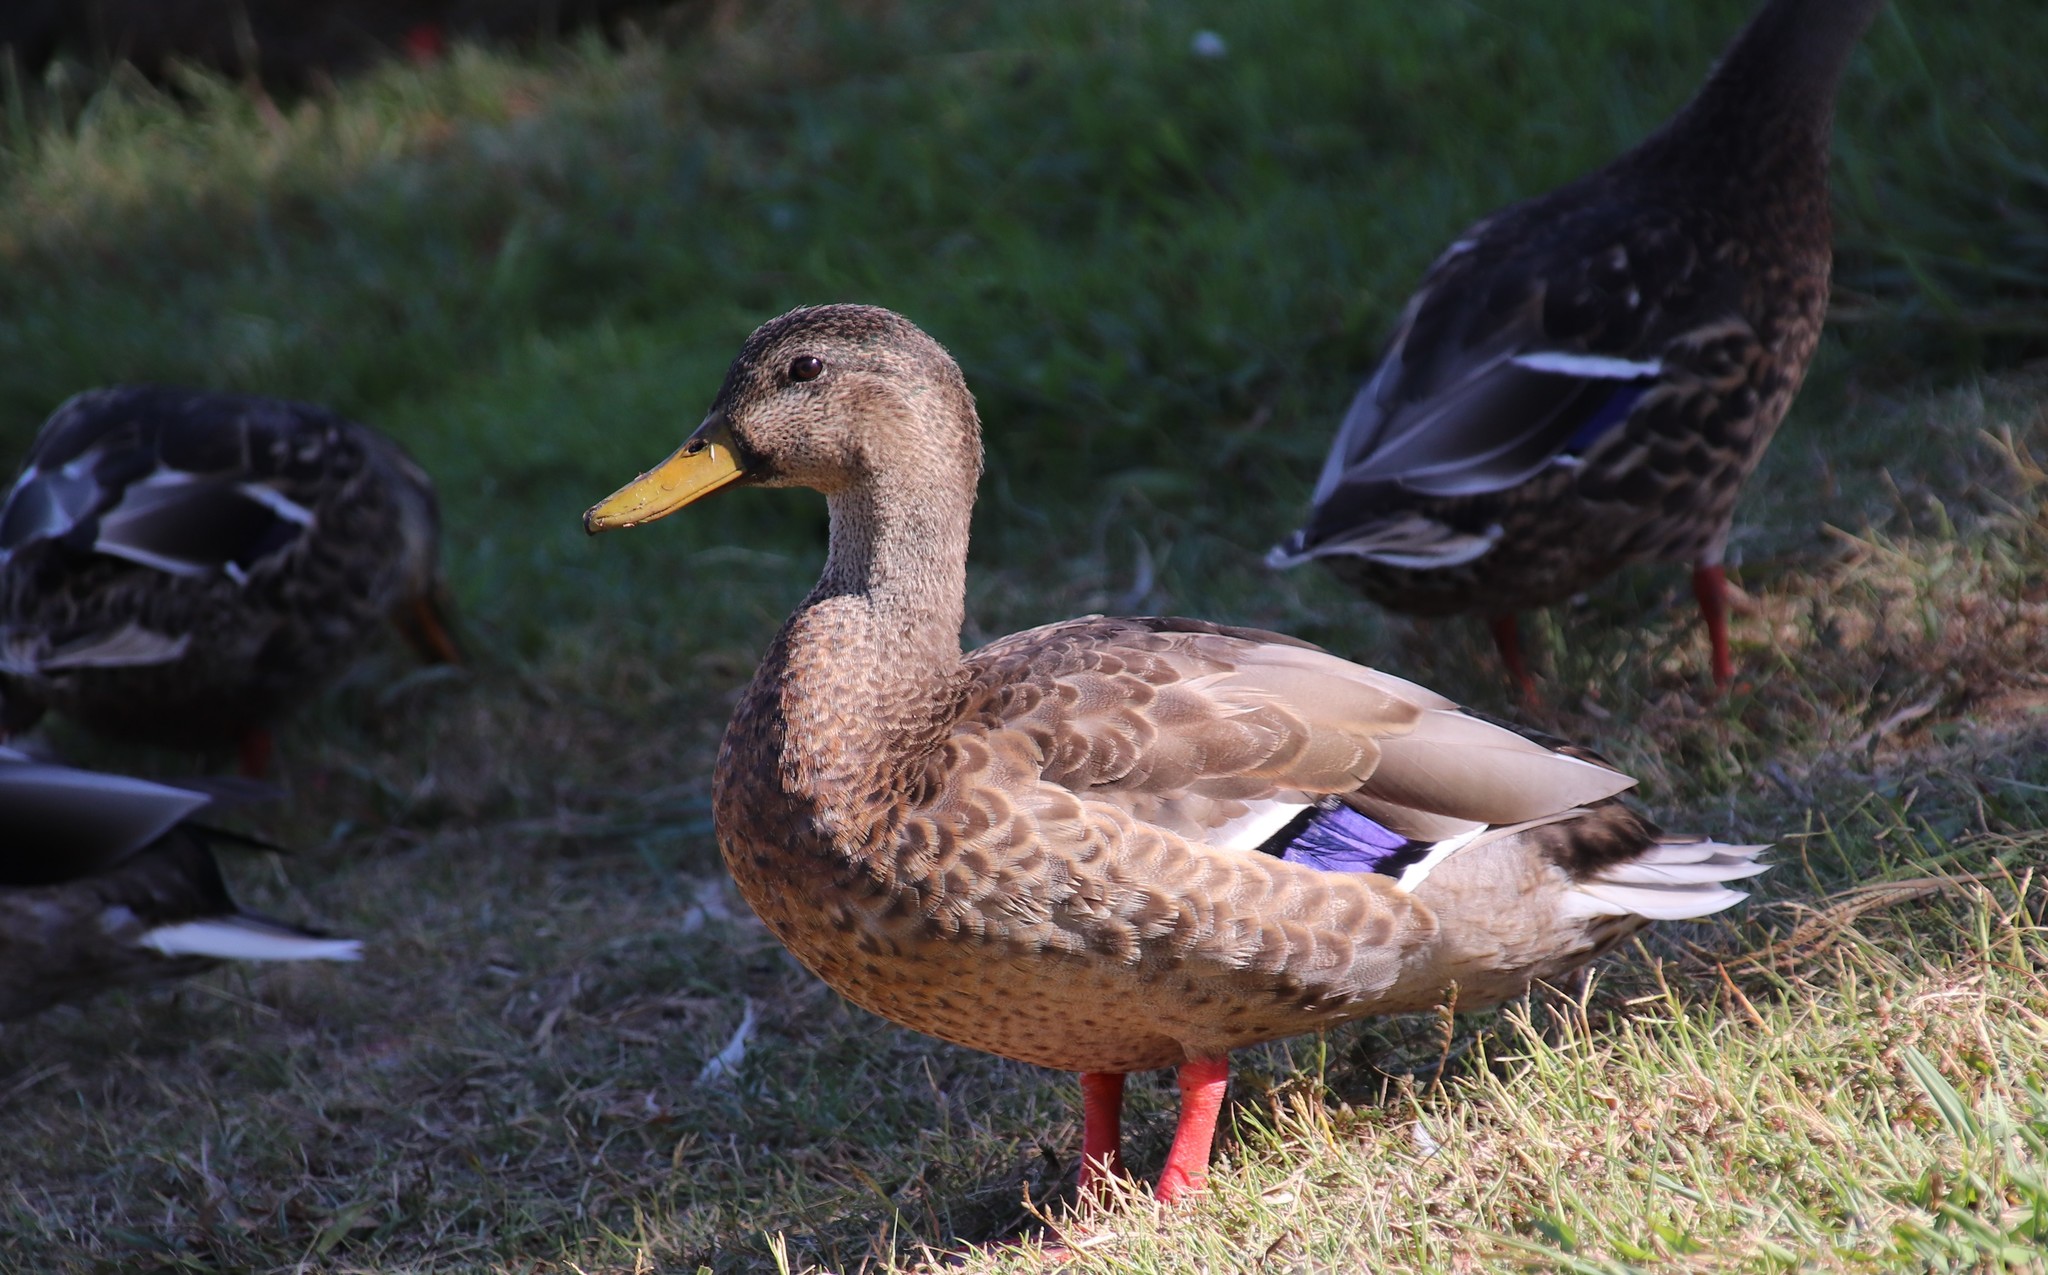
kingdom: Animalia
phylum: Chordata
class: Aves
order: Anseriformes
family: Anatidae
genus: Anas
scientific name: Anas platyrhynchos
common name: Mallard
